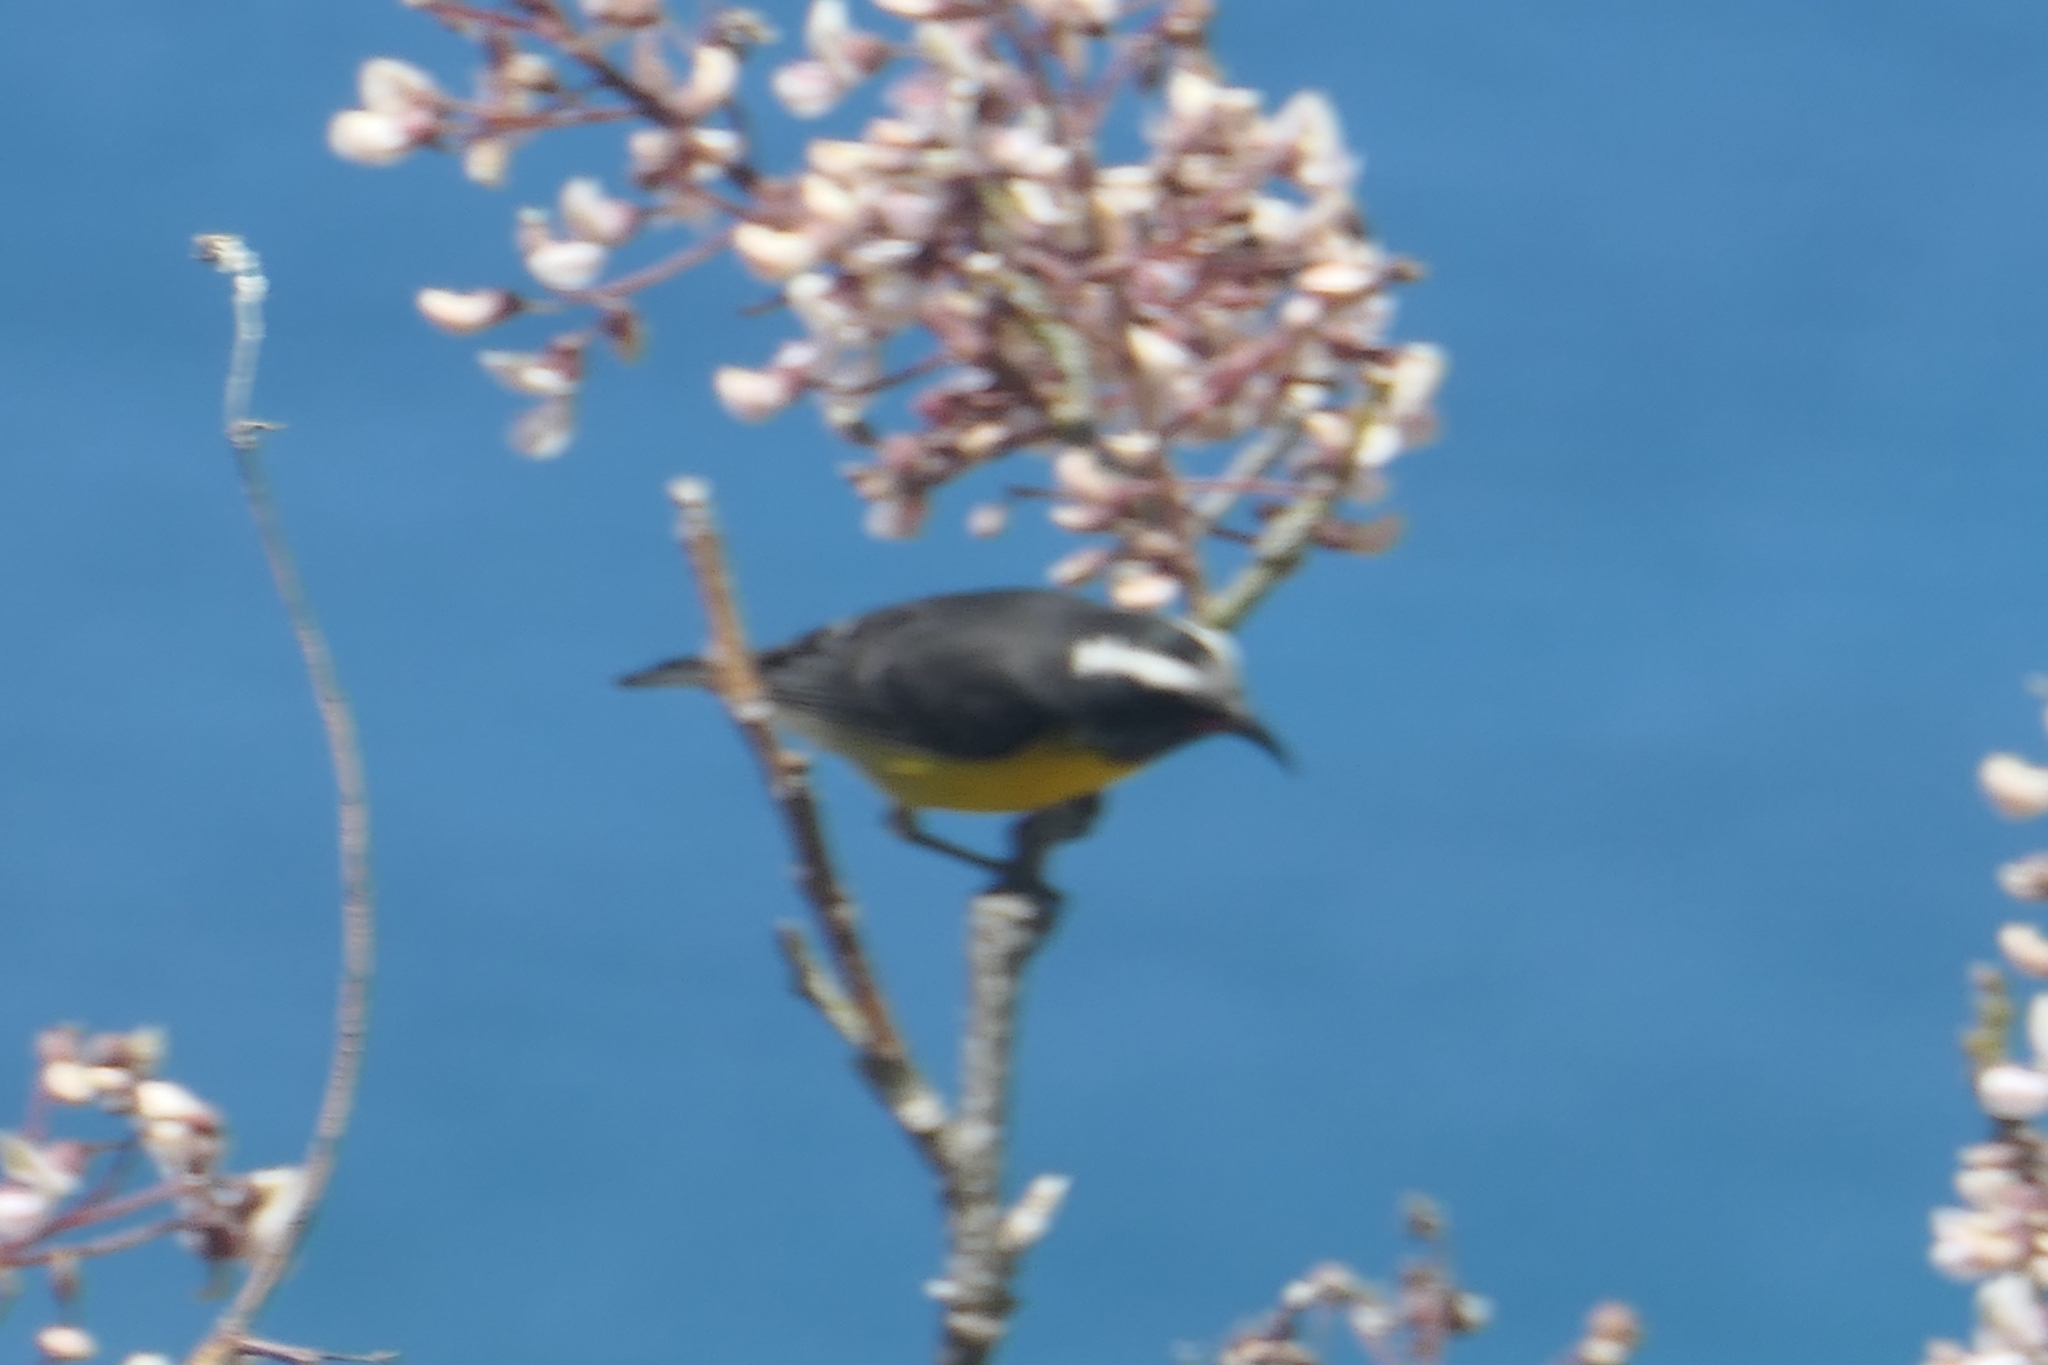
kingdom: Animalia
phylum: Chordata
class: Aves
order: Passeriformes
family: Thraupidae
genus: Coereba
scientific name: Coereba flaveola
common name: Bananaquit
